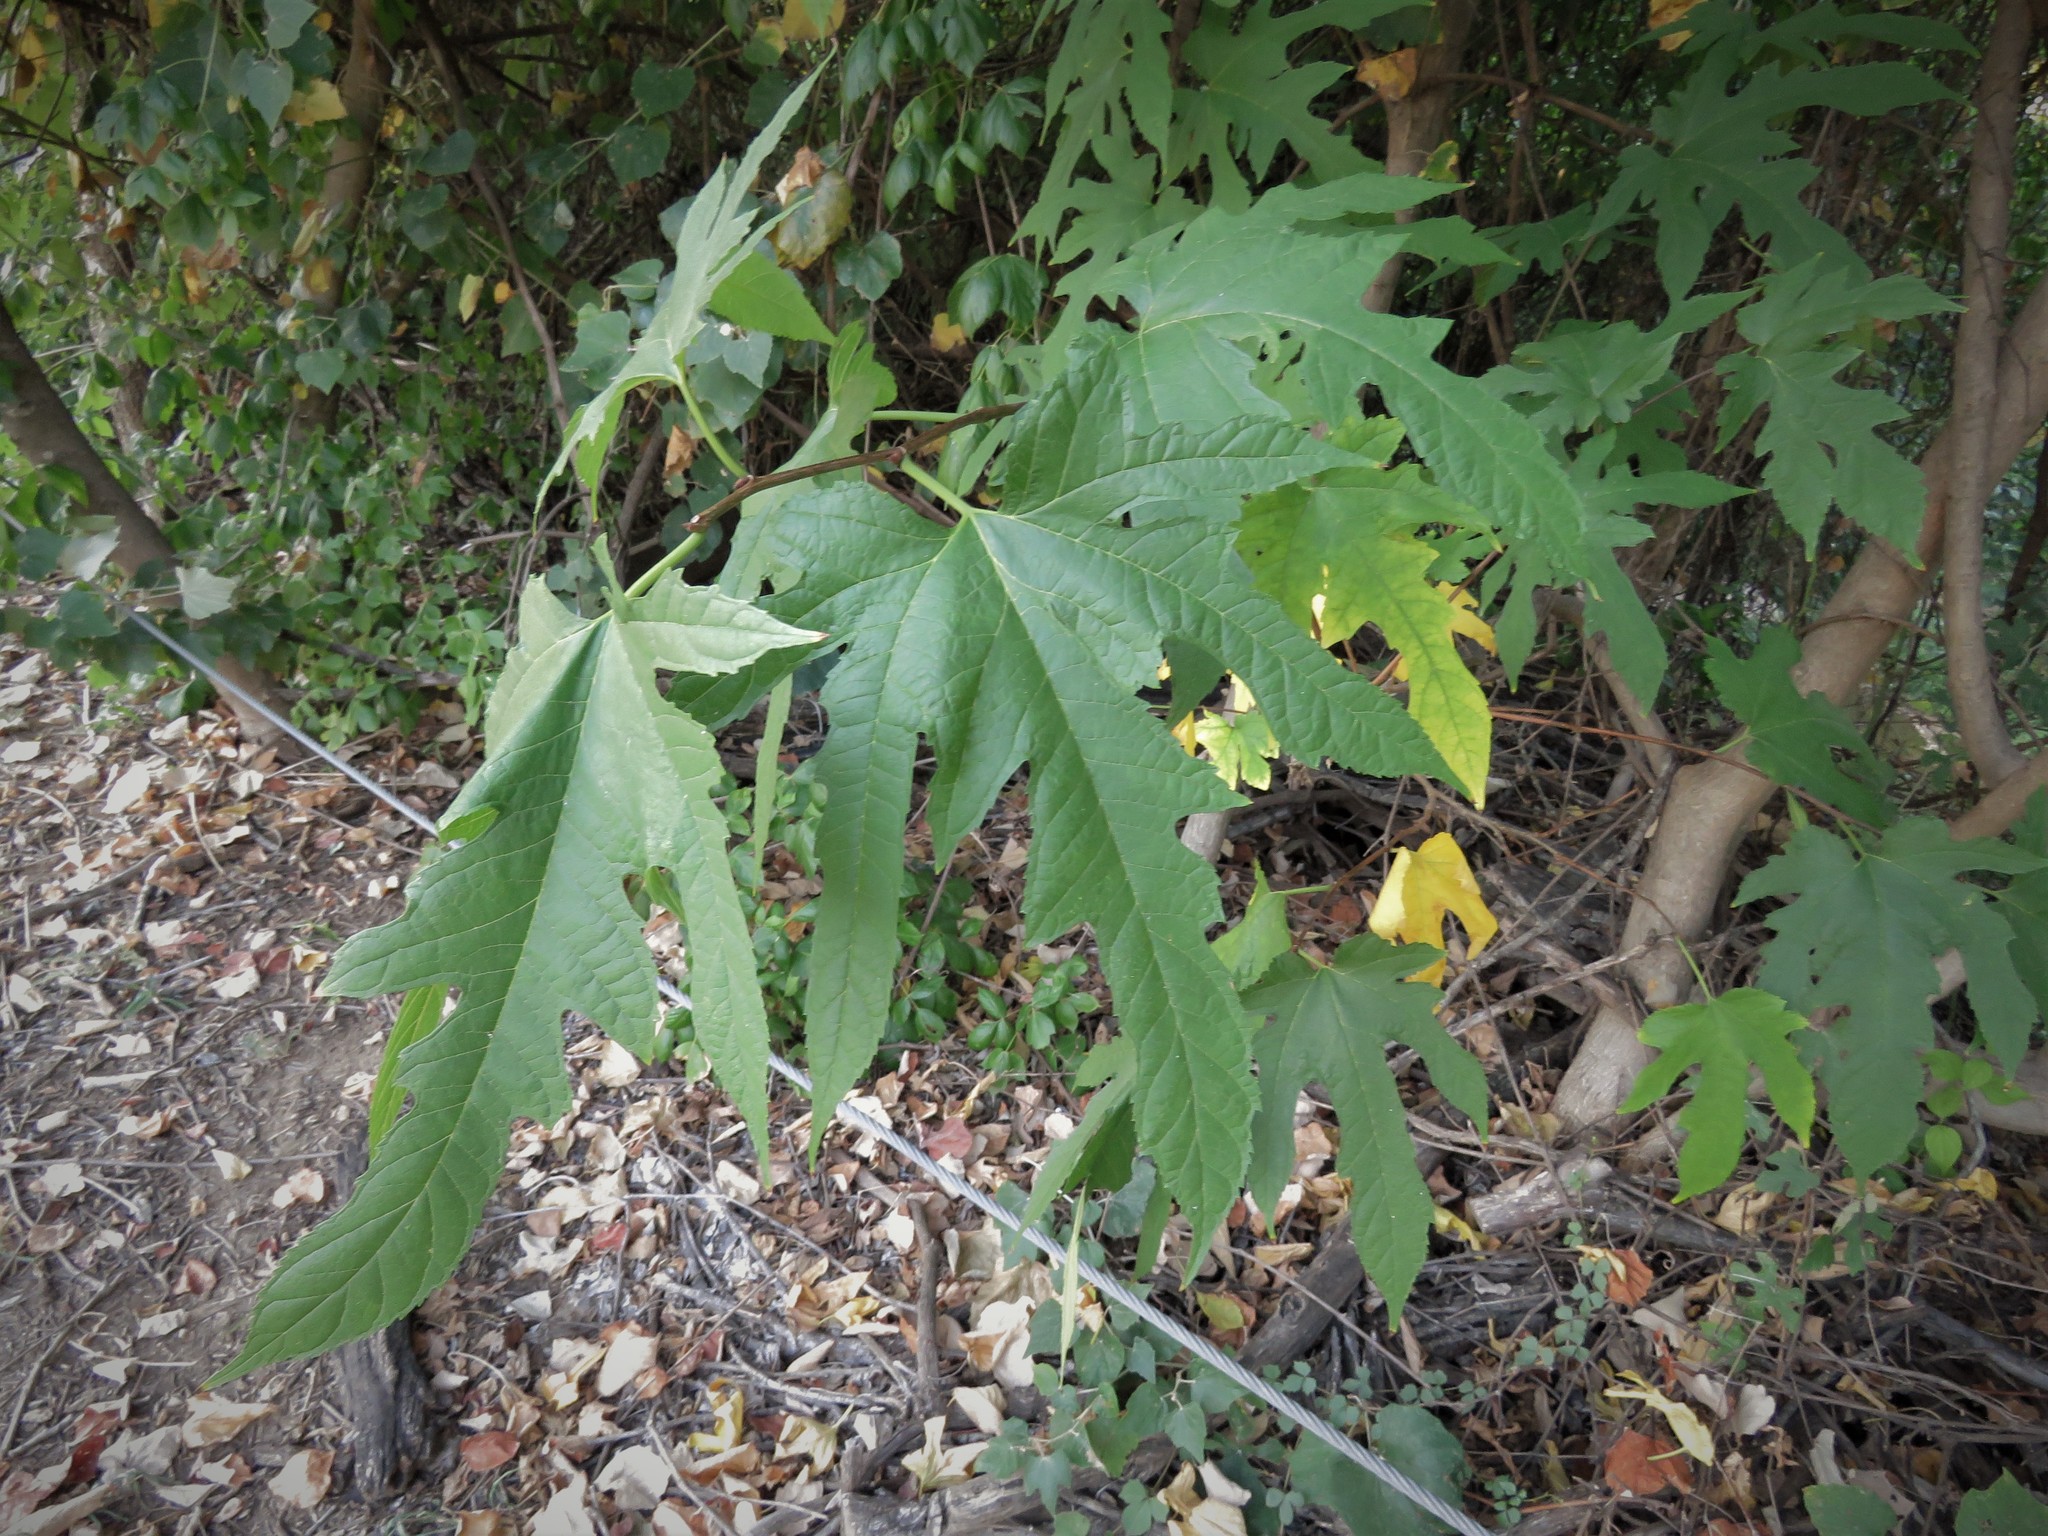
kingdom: Plantae
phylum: Tracheophyta
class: Magnoliopsida
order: Rosales
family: Moraceae
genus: Morus
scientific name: Morus rubra
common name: Red mulberry
